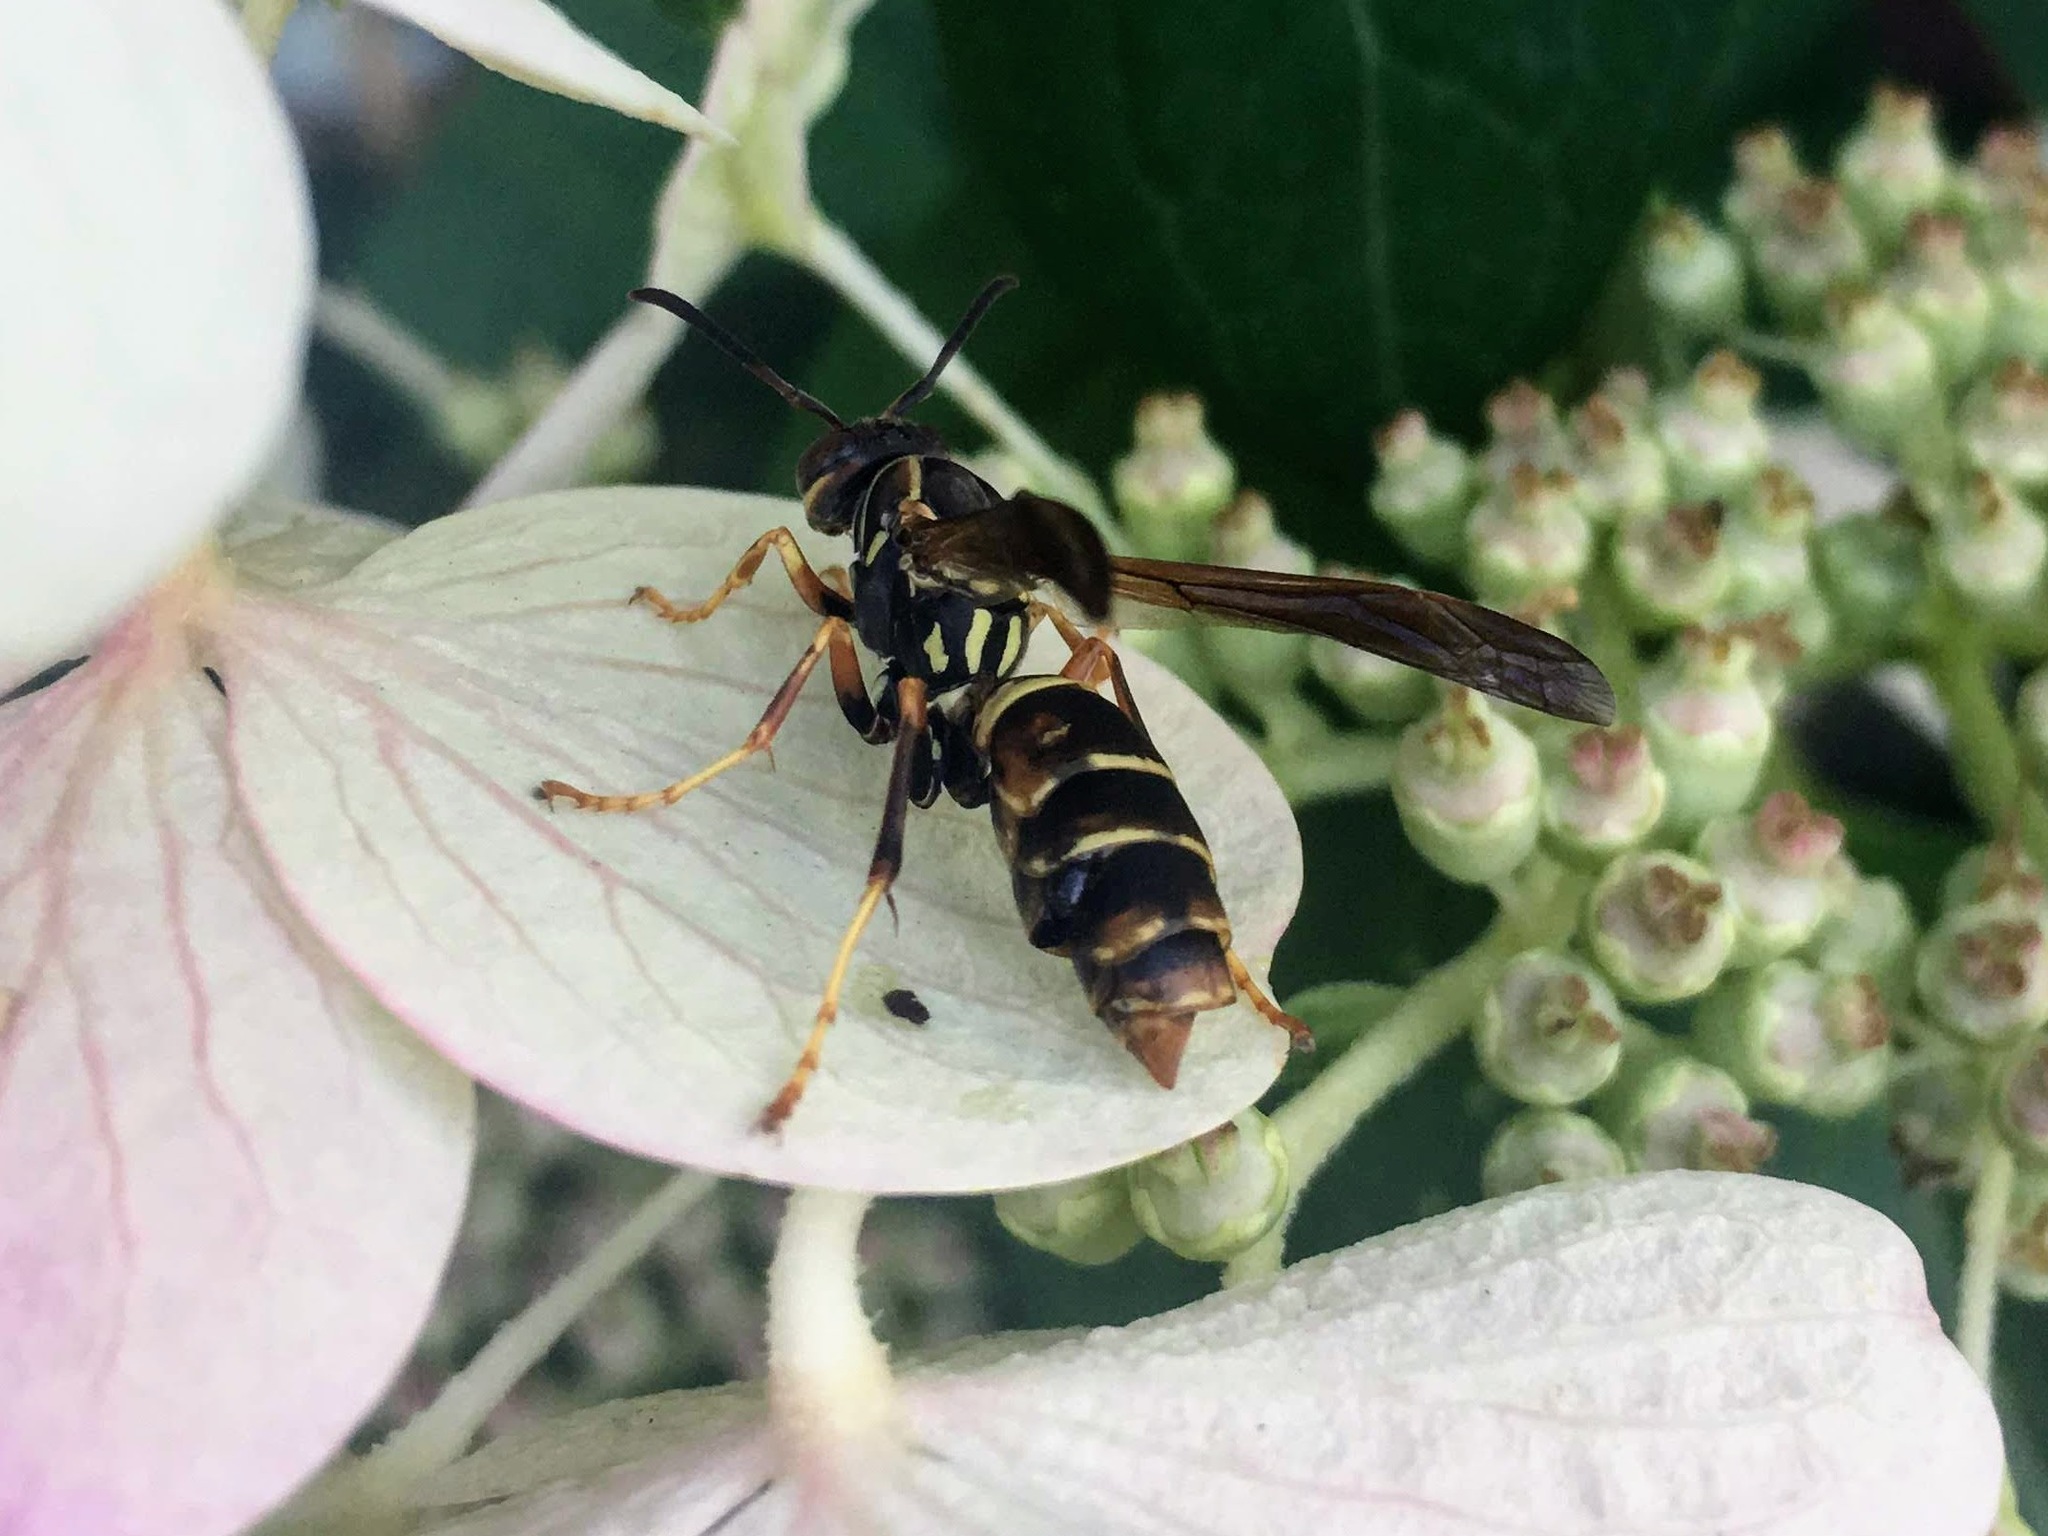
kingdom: Animalia
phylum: Arthropoda
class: Insecta
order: Hymenoptera
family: Eumenidae
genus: Polistes
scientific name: Polistes fuscatus
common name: Dark paper wasp
